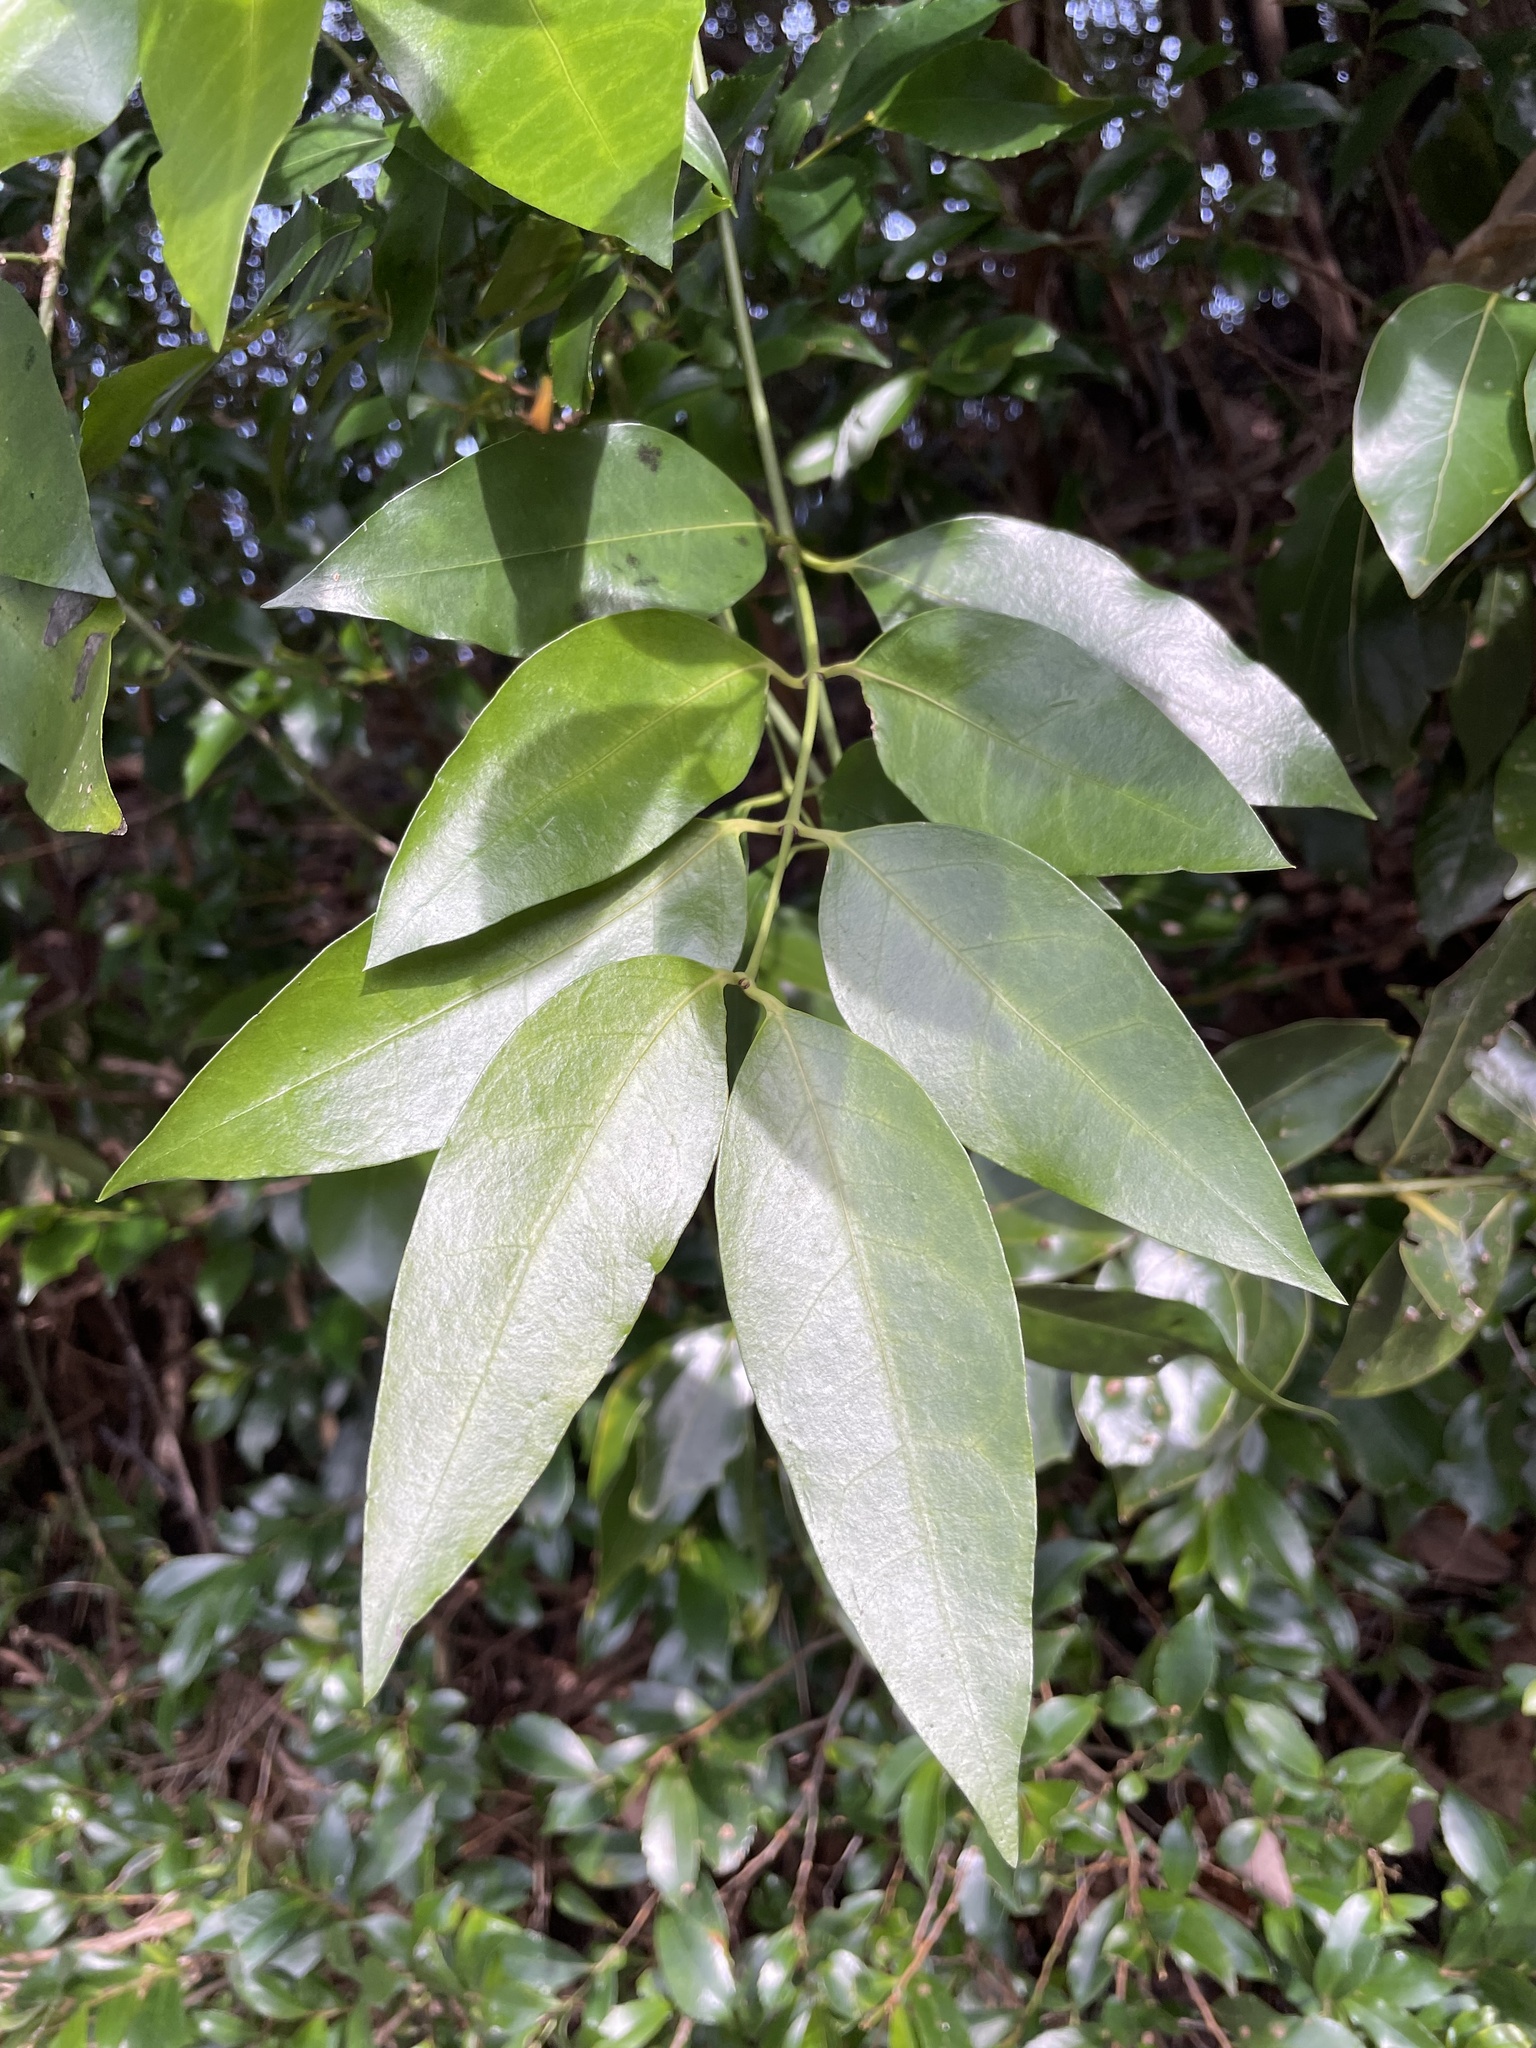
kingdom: Plantae
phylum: Tracheophyta
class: Magnoliopsida
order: Gentianales
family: Loganiaceae
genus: Gardneria
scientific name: Gardneria nutans
